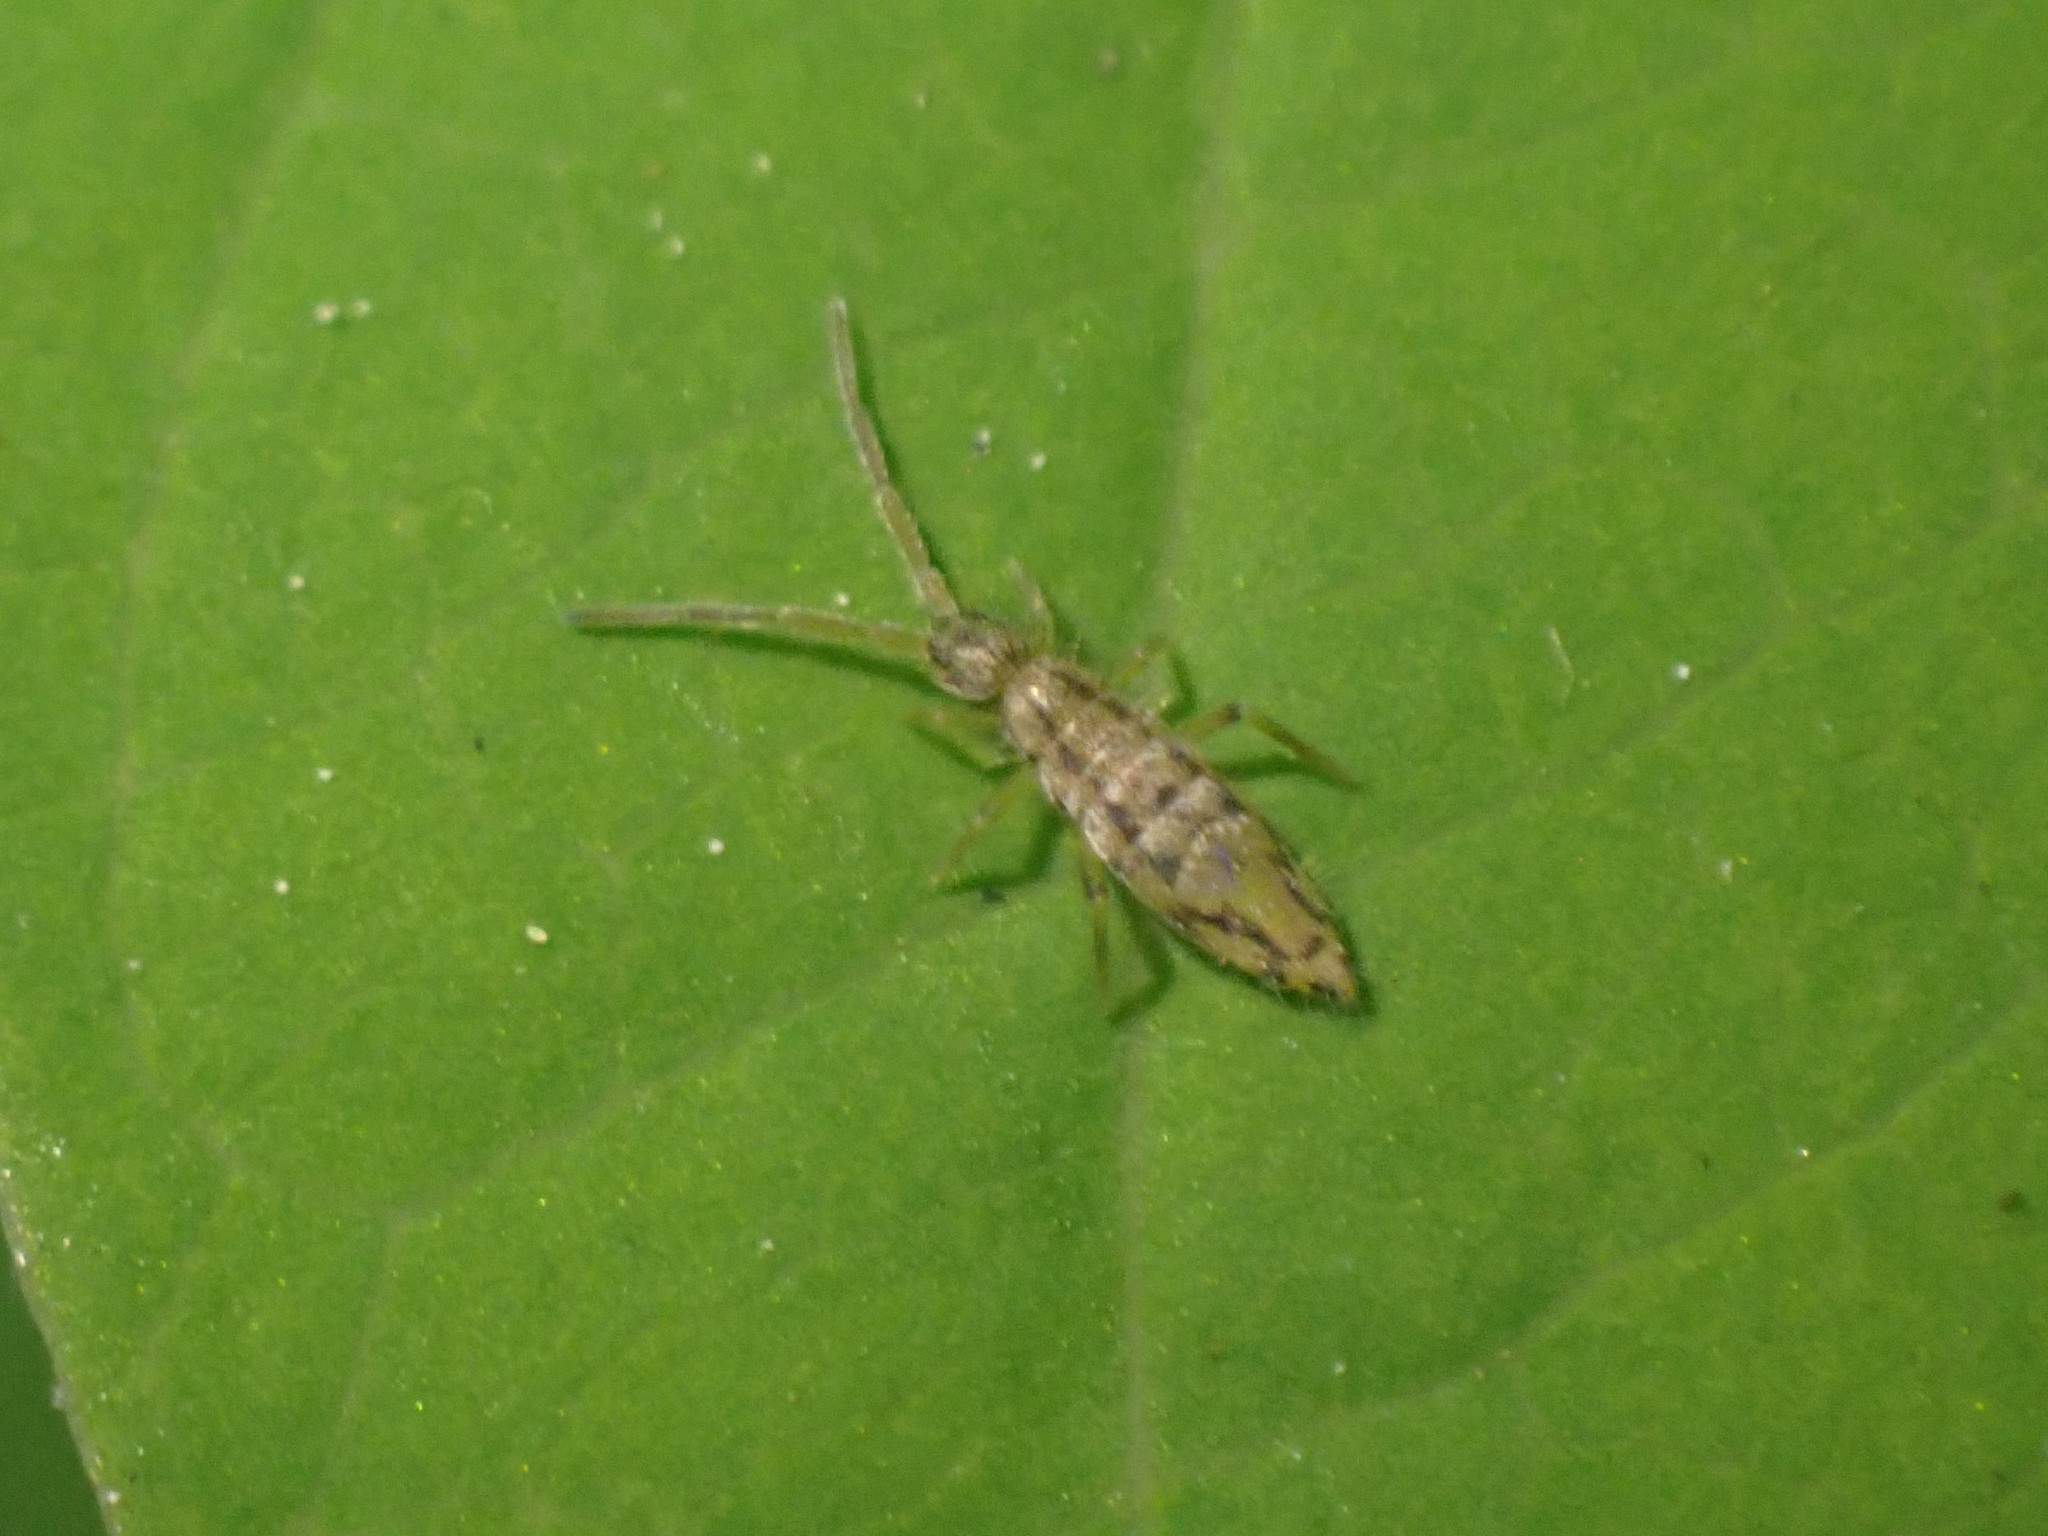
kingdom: Animalia
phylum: Arthropoda
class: Collembola
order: Entomobryomorpha
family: Entomobryidae
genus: Entomobrya
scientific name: Entomobrya katzi
